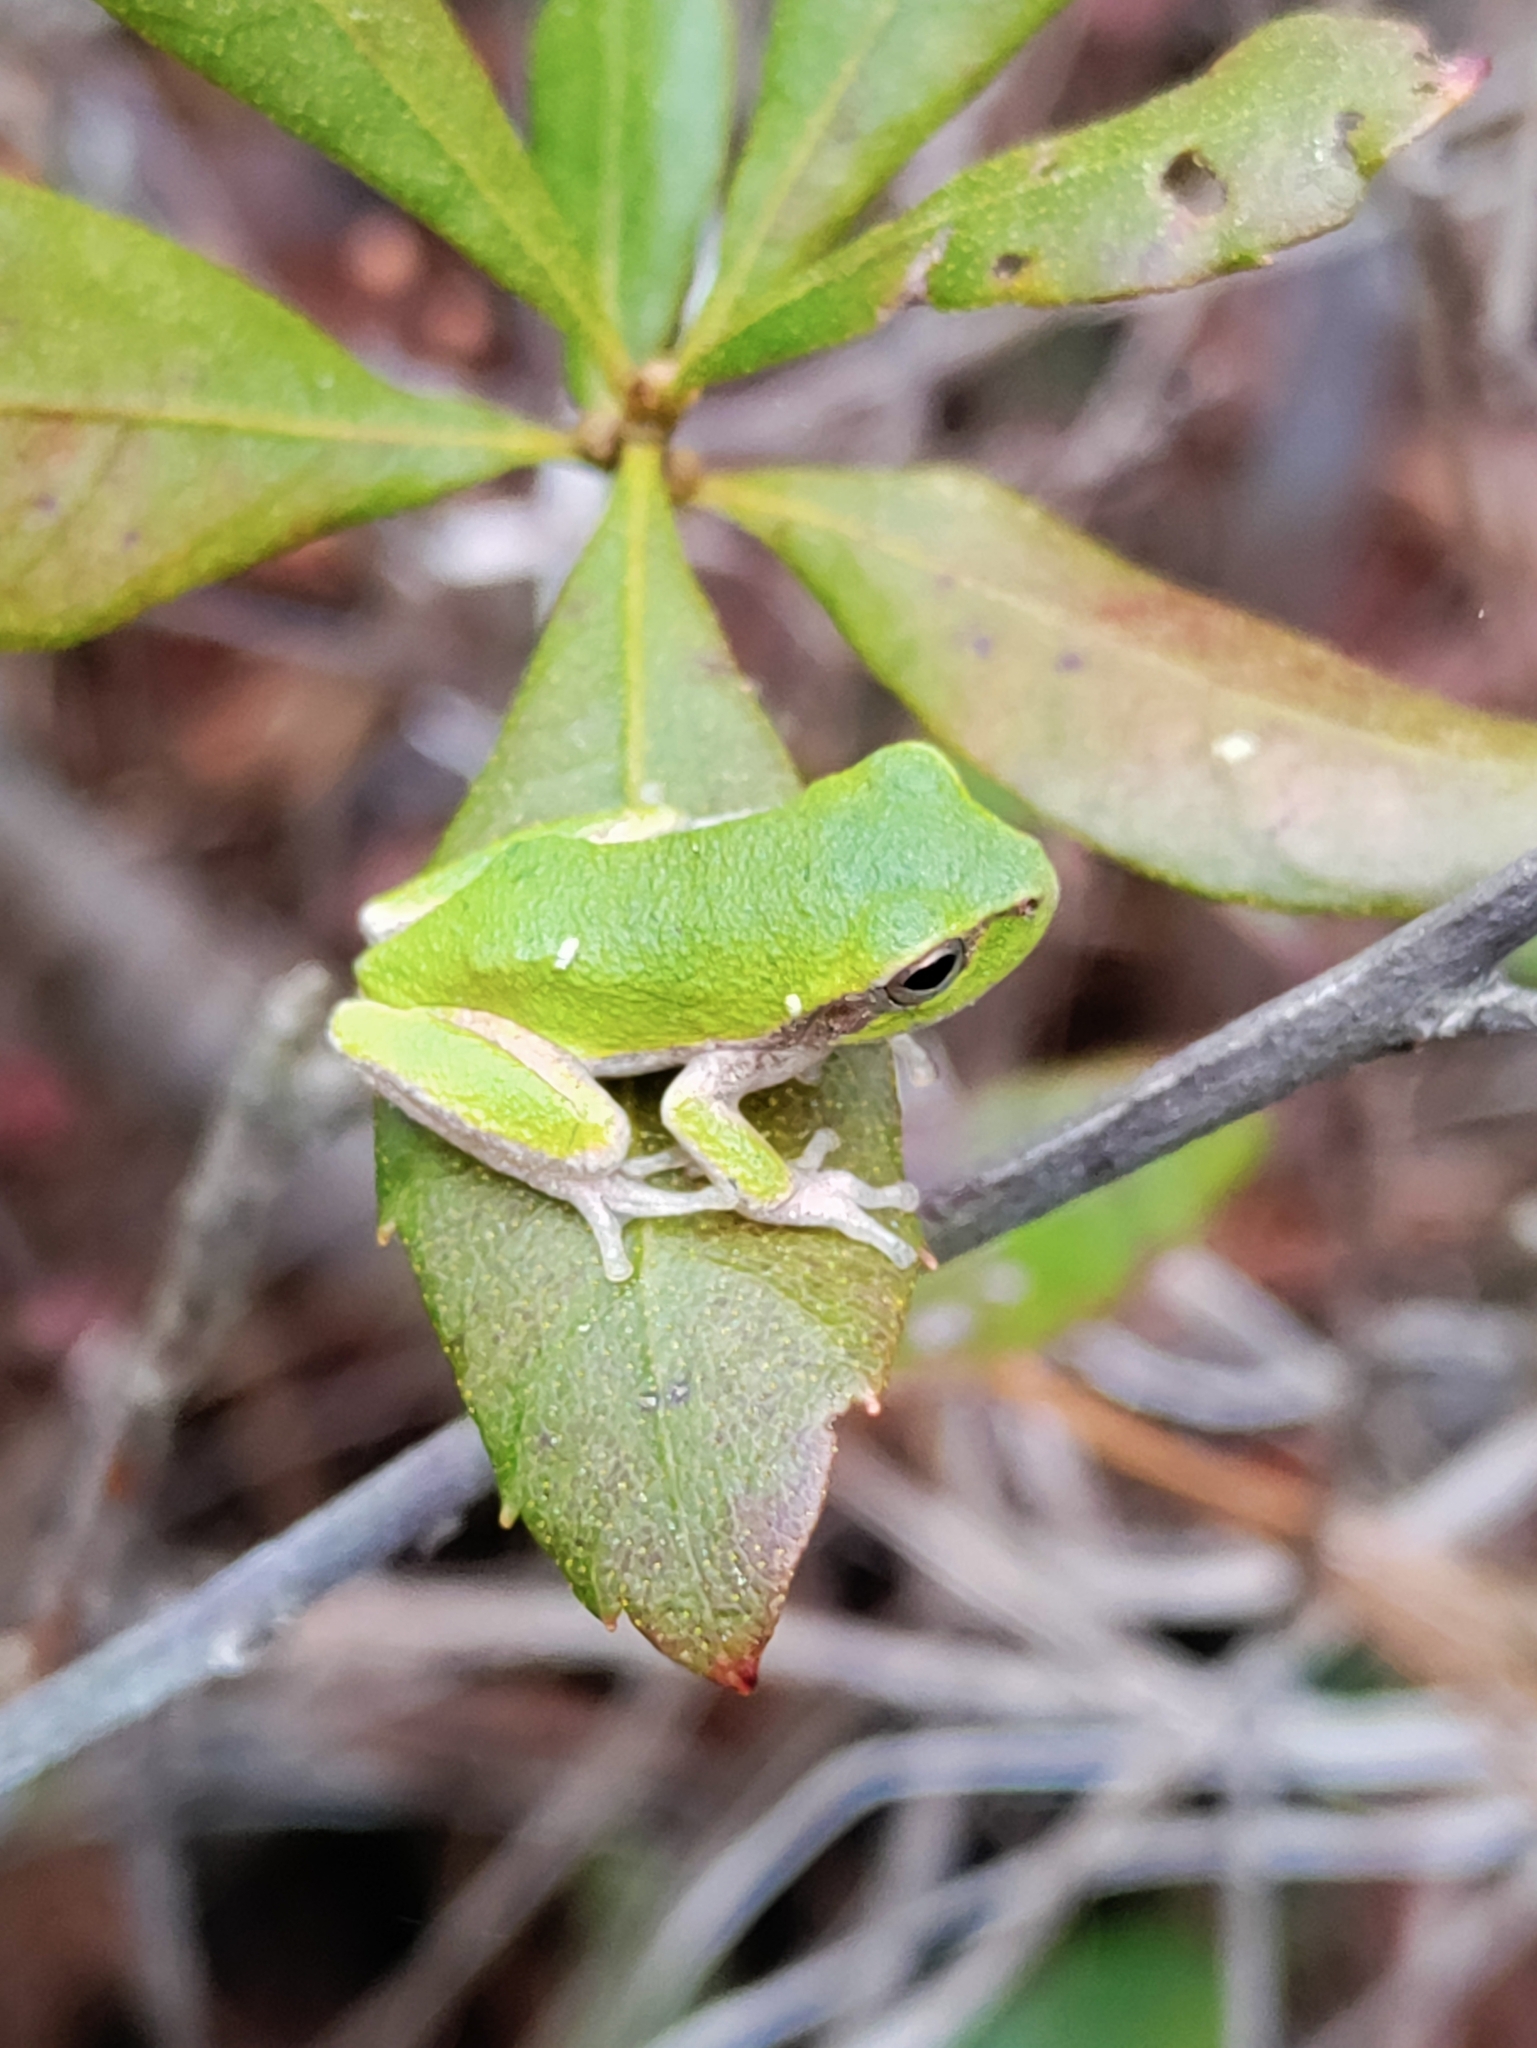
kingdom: Animalia
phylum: Chordata
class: Amphibia
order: Anura
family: Hylidae
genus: Hyla
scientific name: Hyla femoralis
